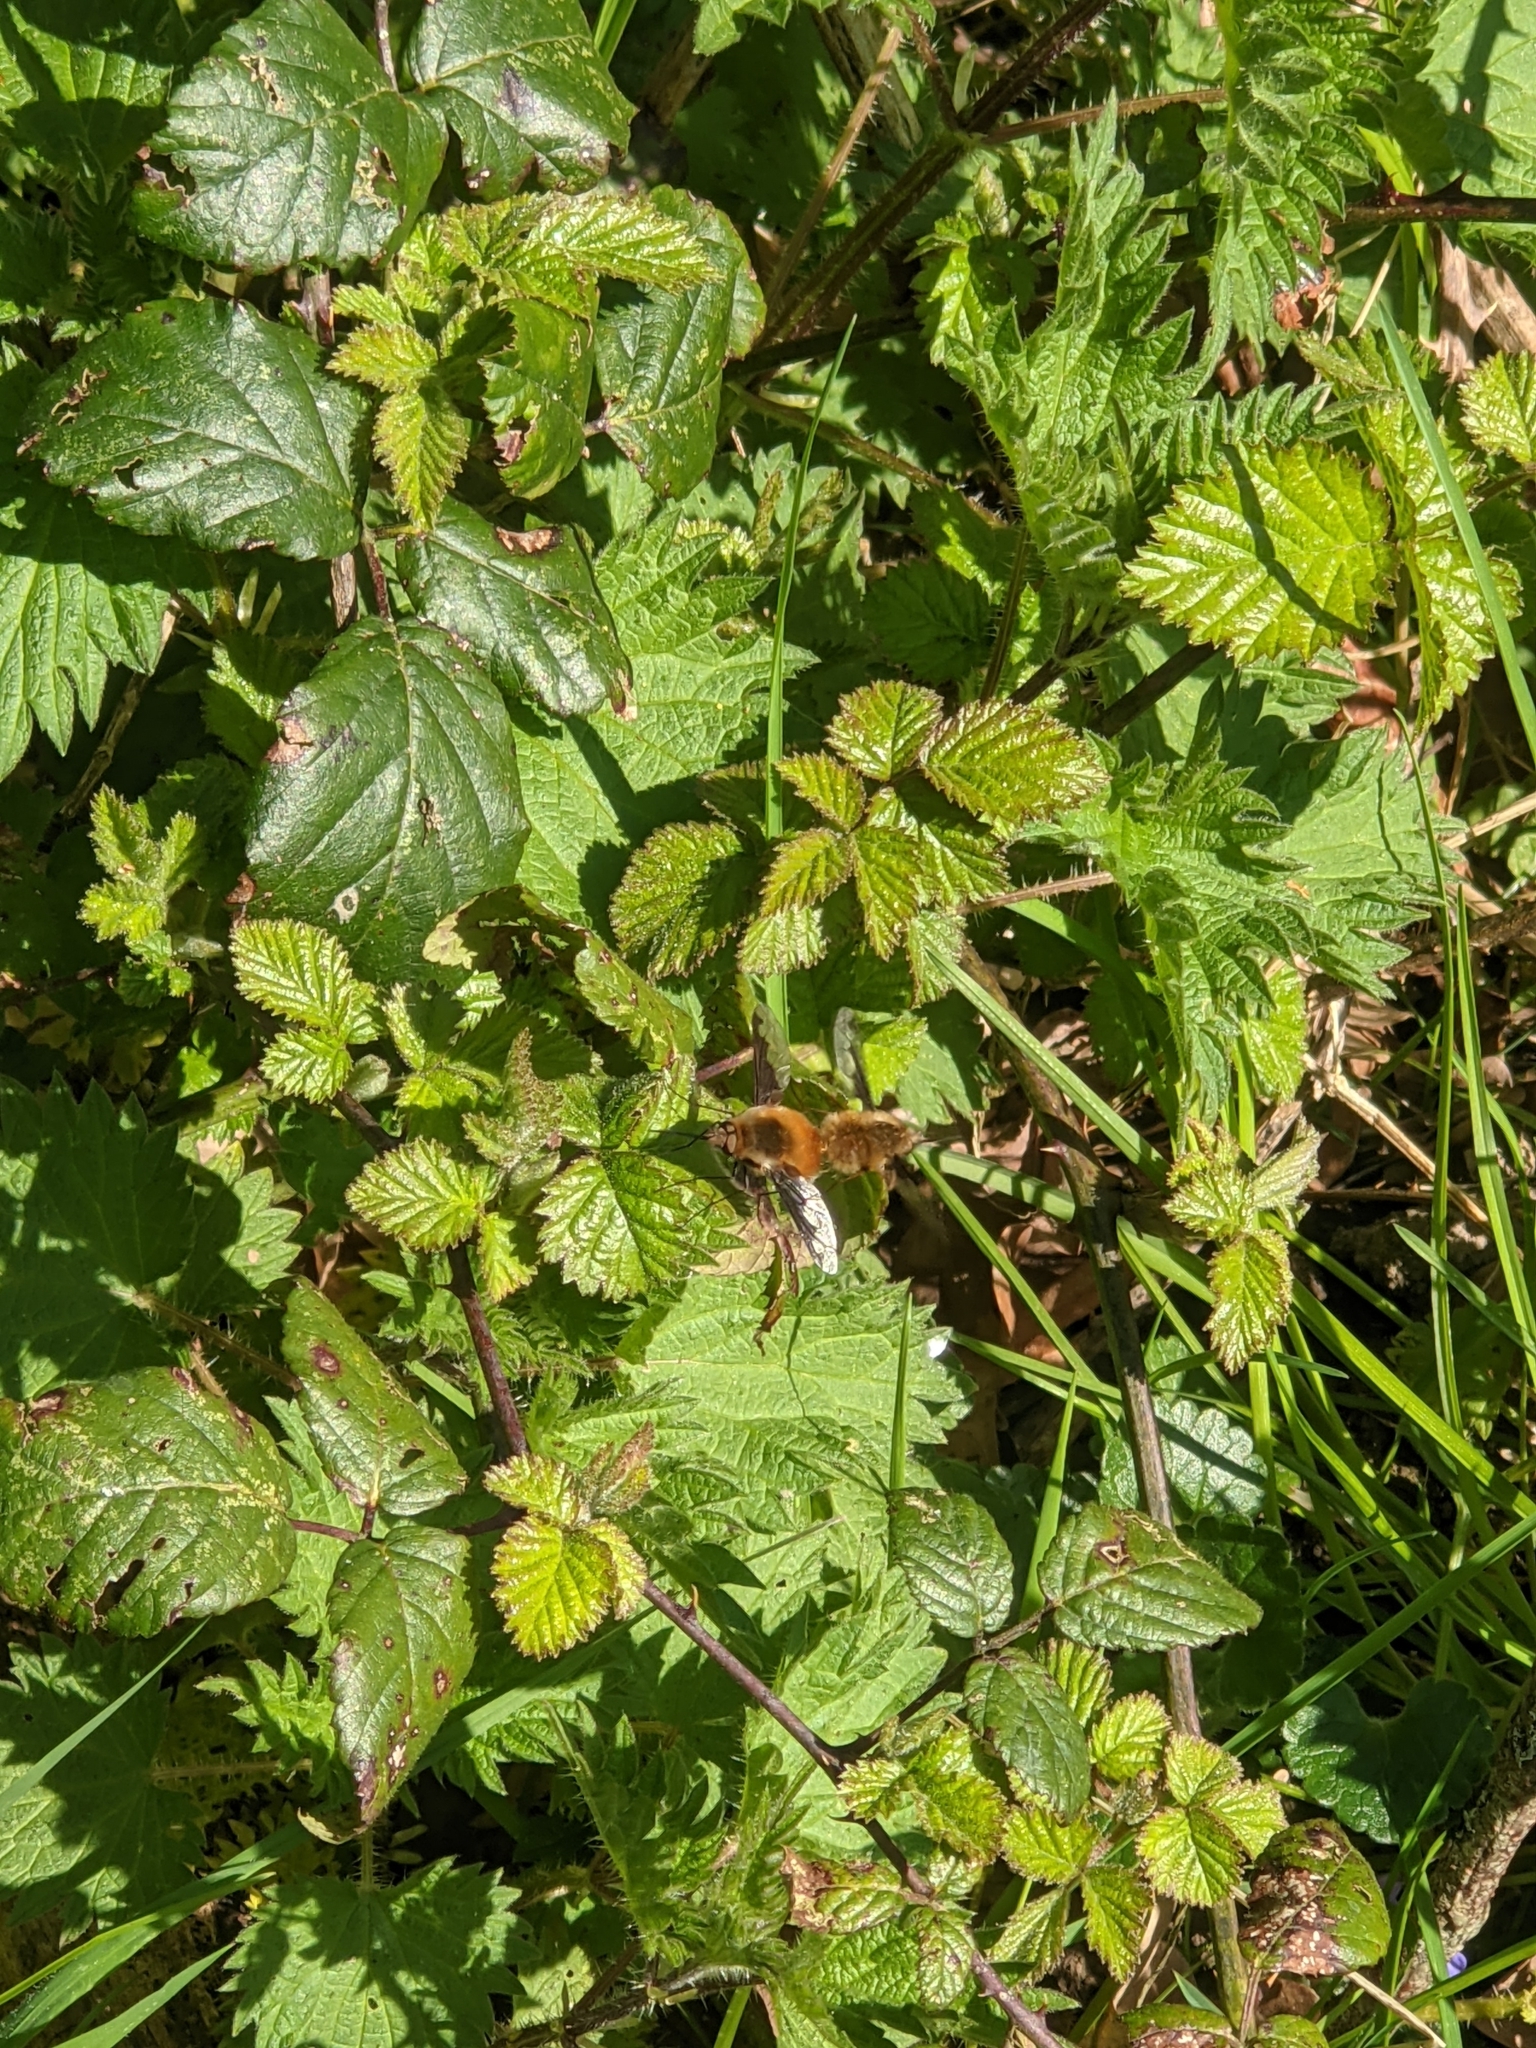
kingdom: Animalia
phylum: Arthropoda
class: Insecta
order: Diptera
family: Bombyliidae
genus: Bombylius
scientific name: Bombylius major
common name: Bee fly
